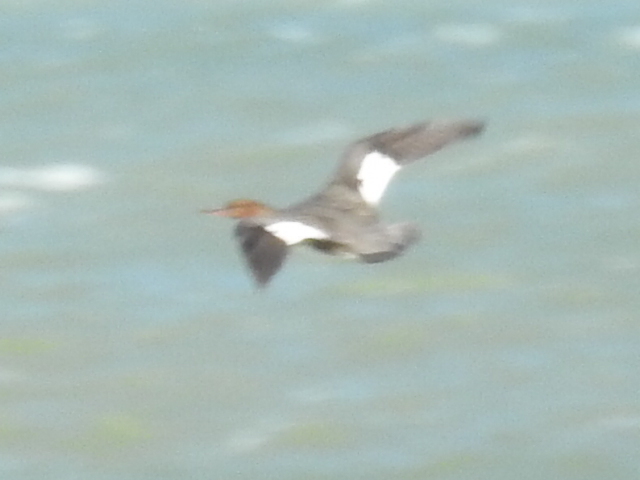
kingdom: Animalia
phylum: Chordata
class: Aves
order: Anseriformes
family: Anatidae
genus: Mergus
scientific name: Mergus serrator
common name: Red-breasted merganser
